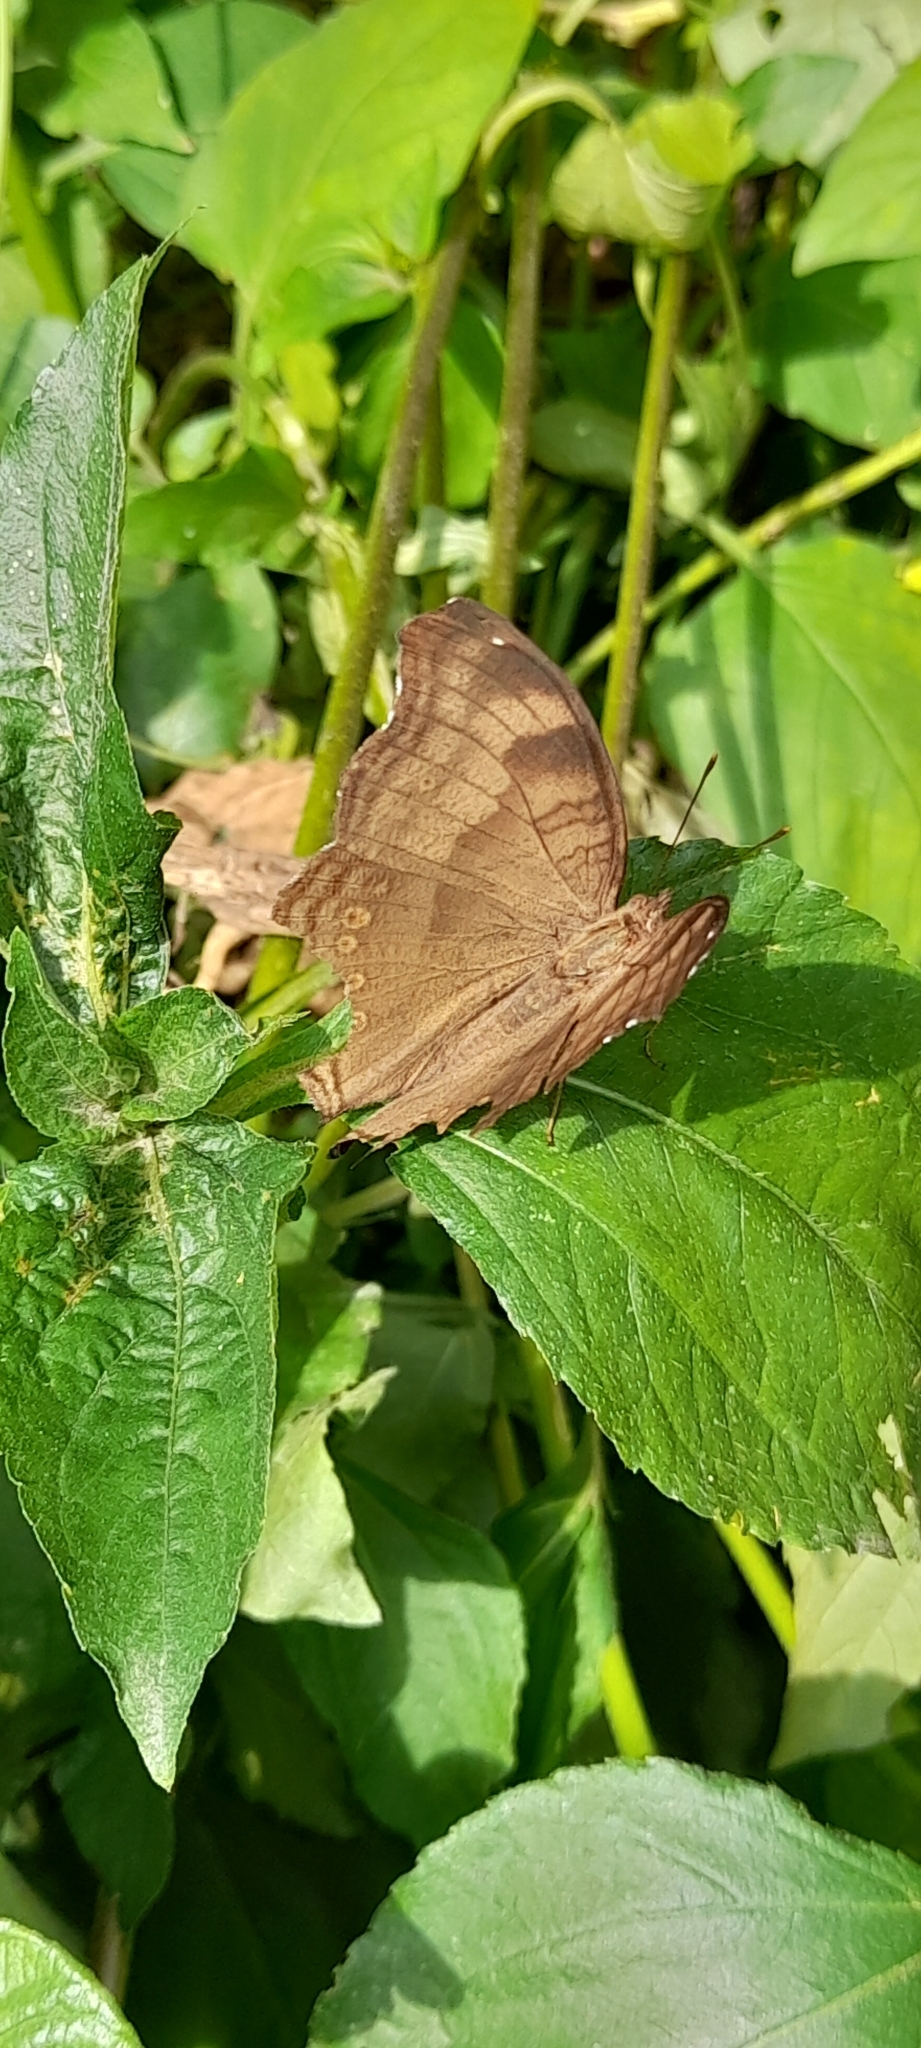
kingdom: Animalia
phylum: Arthropoda
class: Insecta
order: Lepidoptera
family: Nymphalidae
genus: Junonia
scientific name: Junonia iphita
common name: Chocolate pansy
